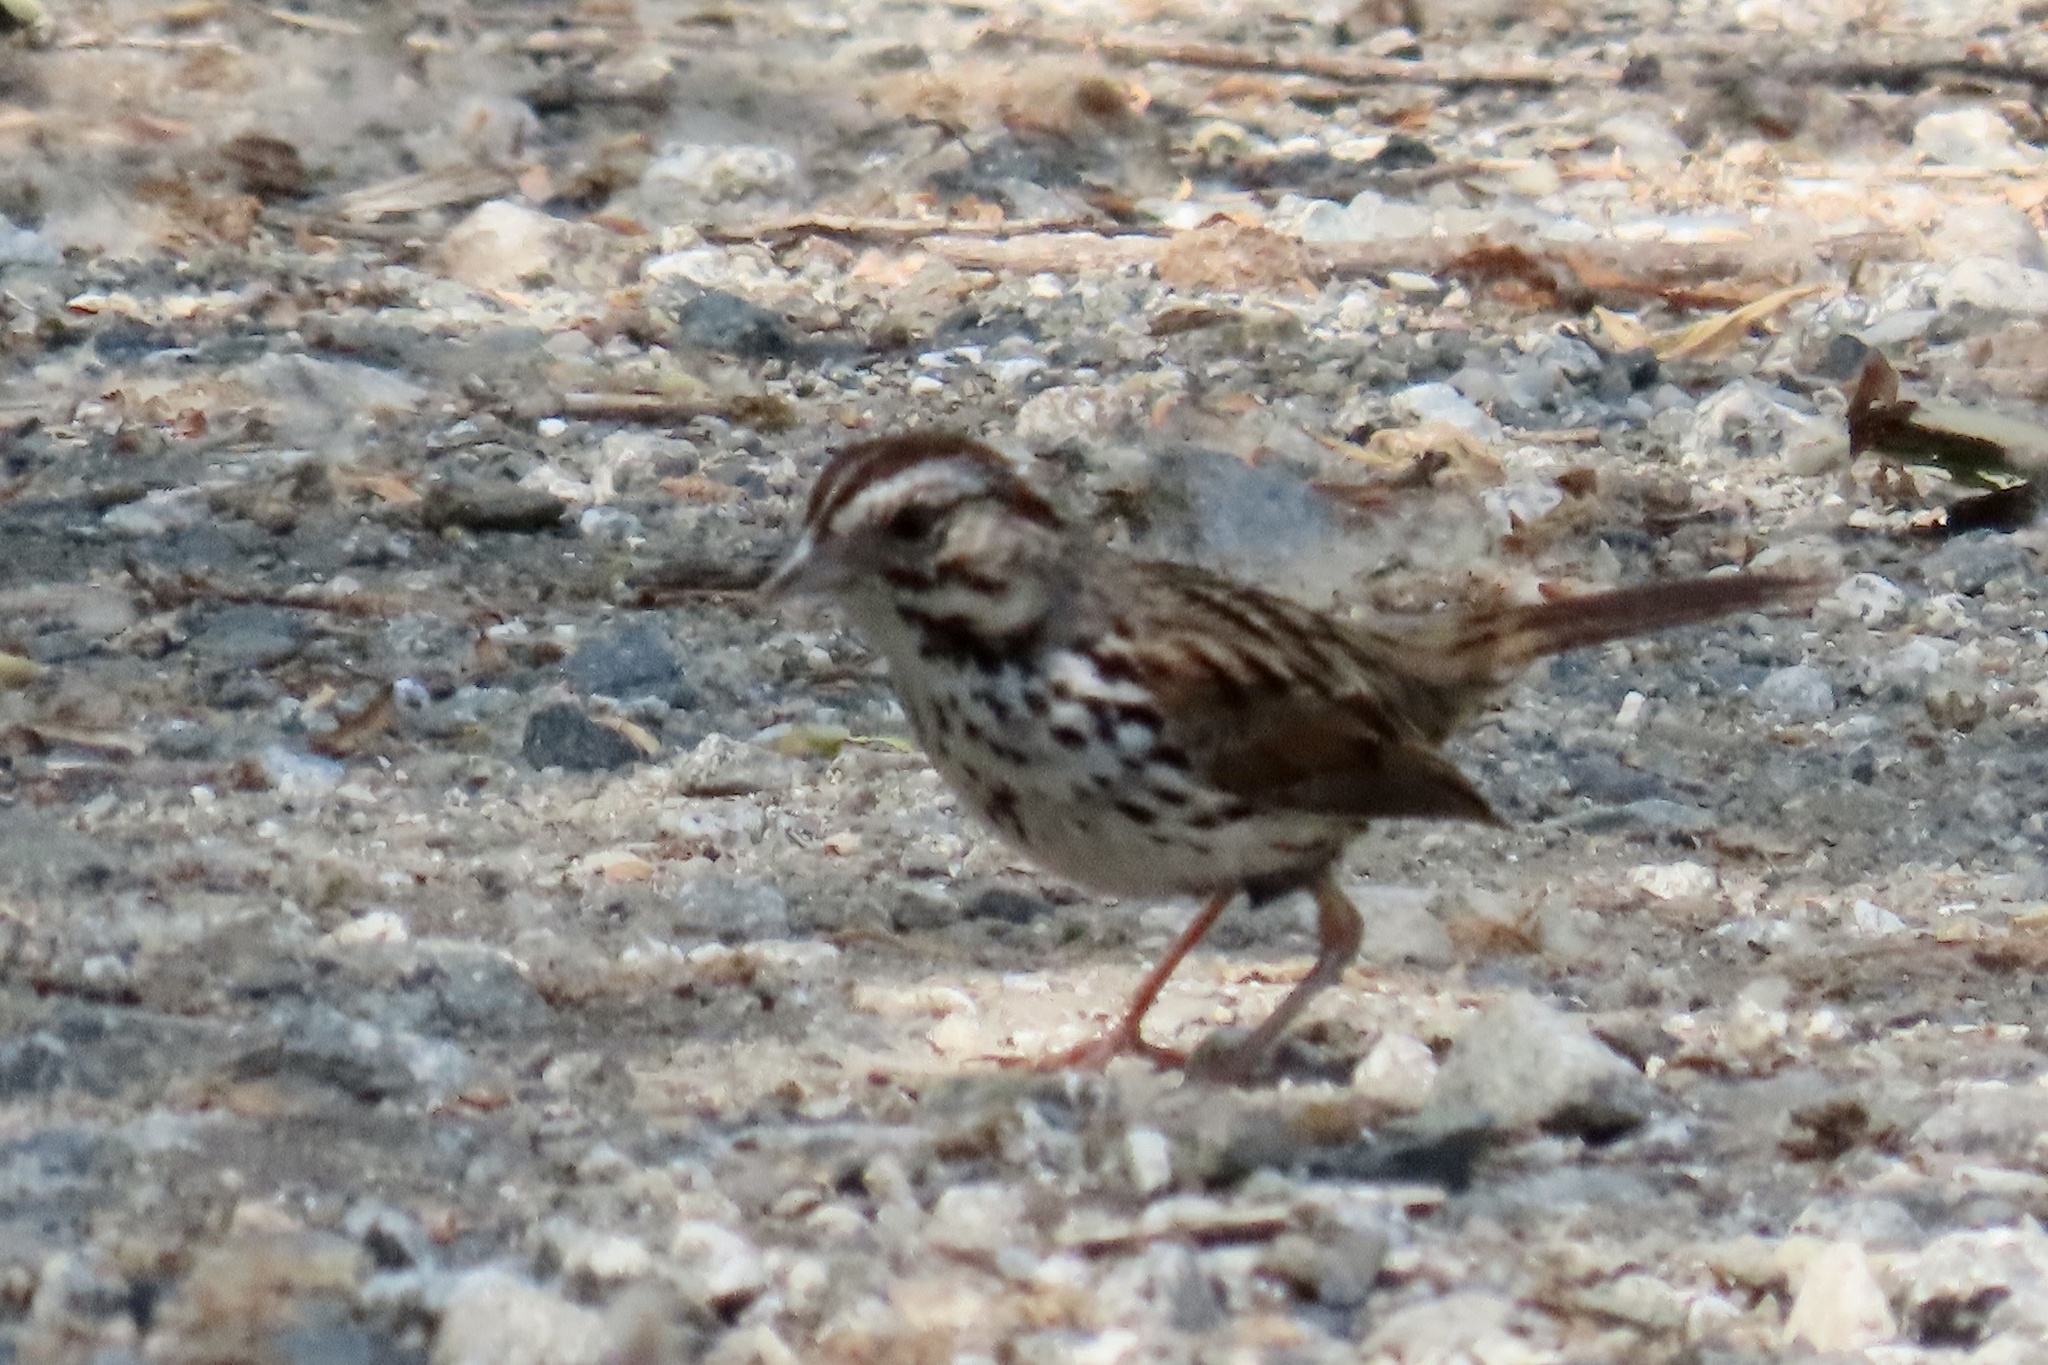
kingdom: Animalia
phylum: Chordata
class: Aves
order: Passeriformes
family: Passerellidae
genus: Melospiza
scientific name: Melospiza melodia
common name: Song sparrow
